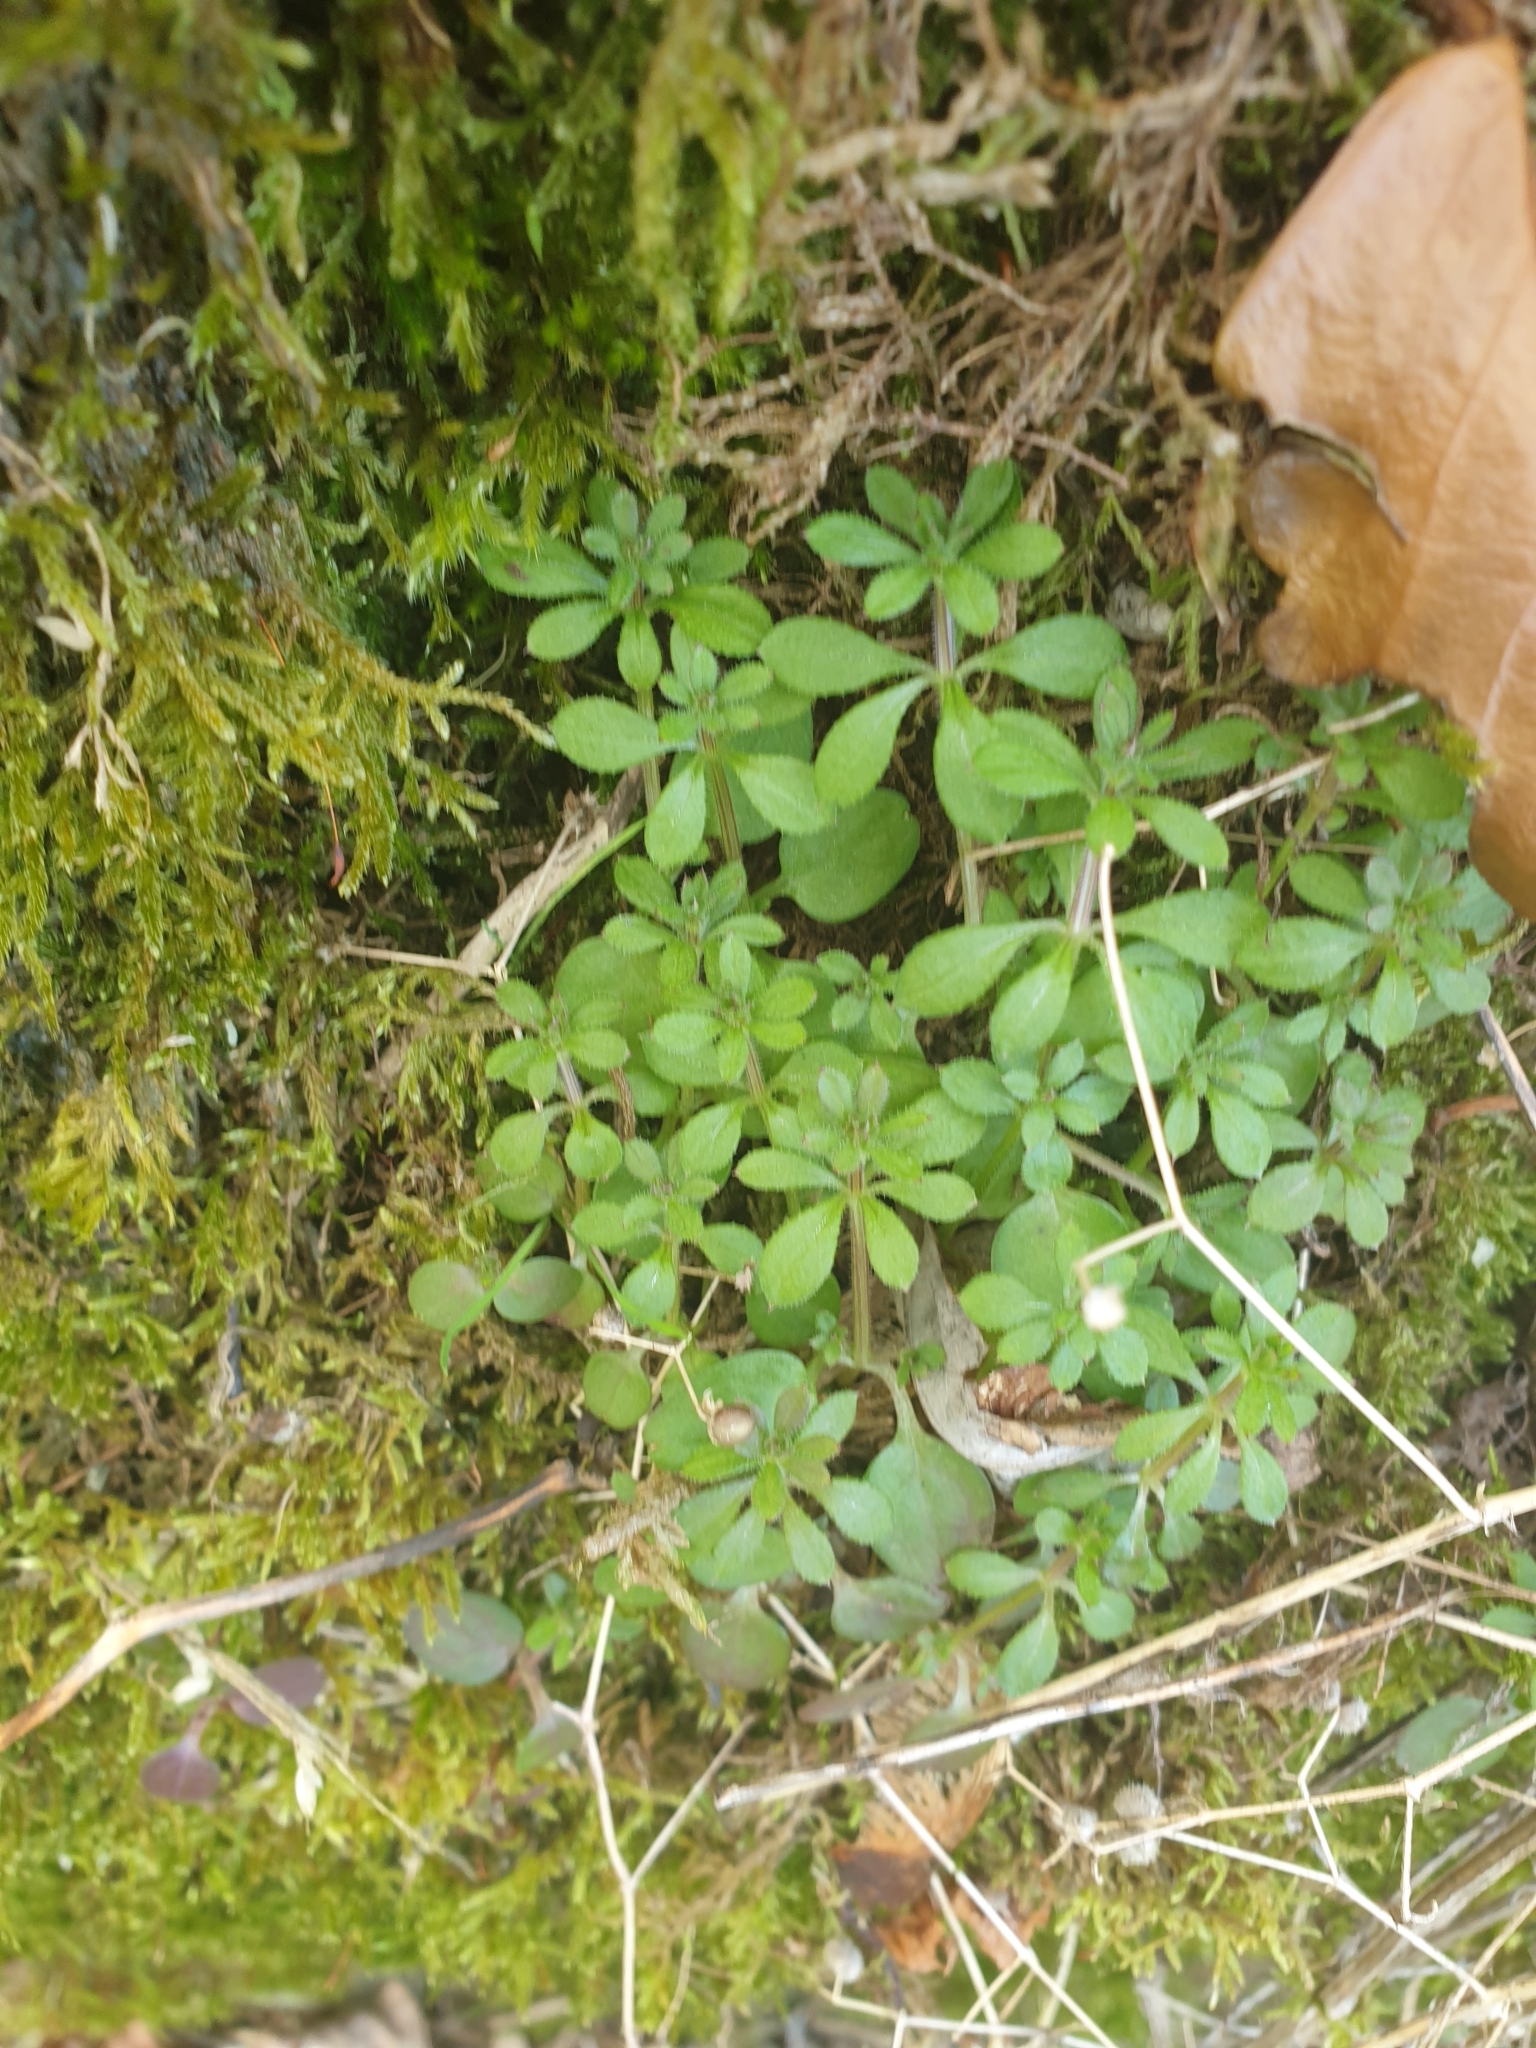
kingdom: Plantae
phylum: Tracheophyta
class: Magnoliopsida
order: Gentianales
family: Rubiaceae
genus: Galium
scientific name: Galium aparine
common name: Cleavers
